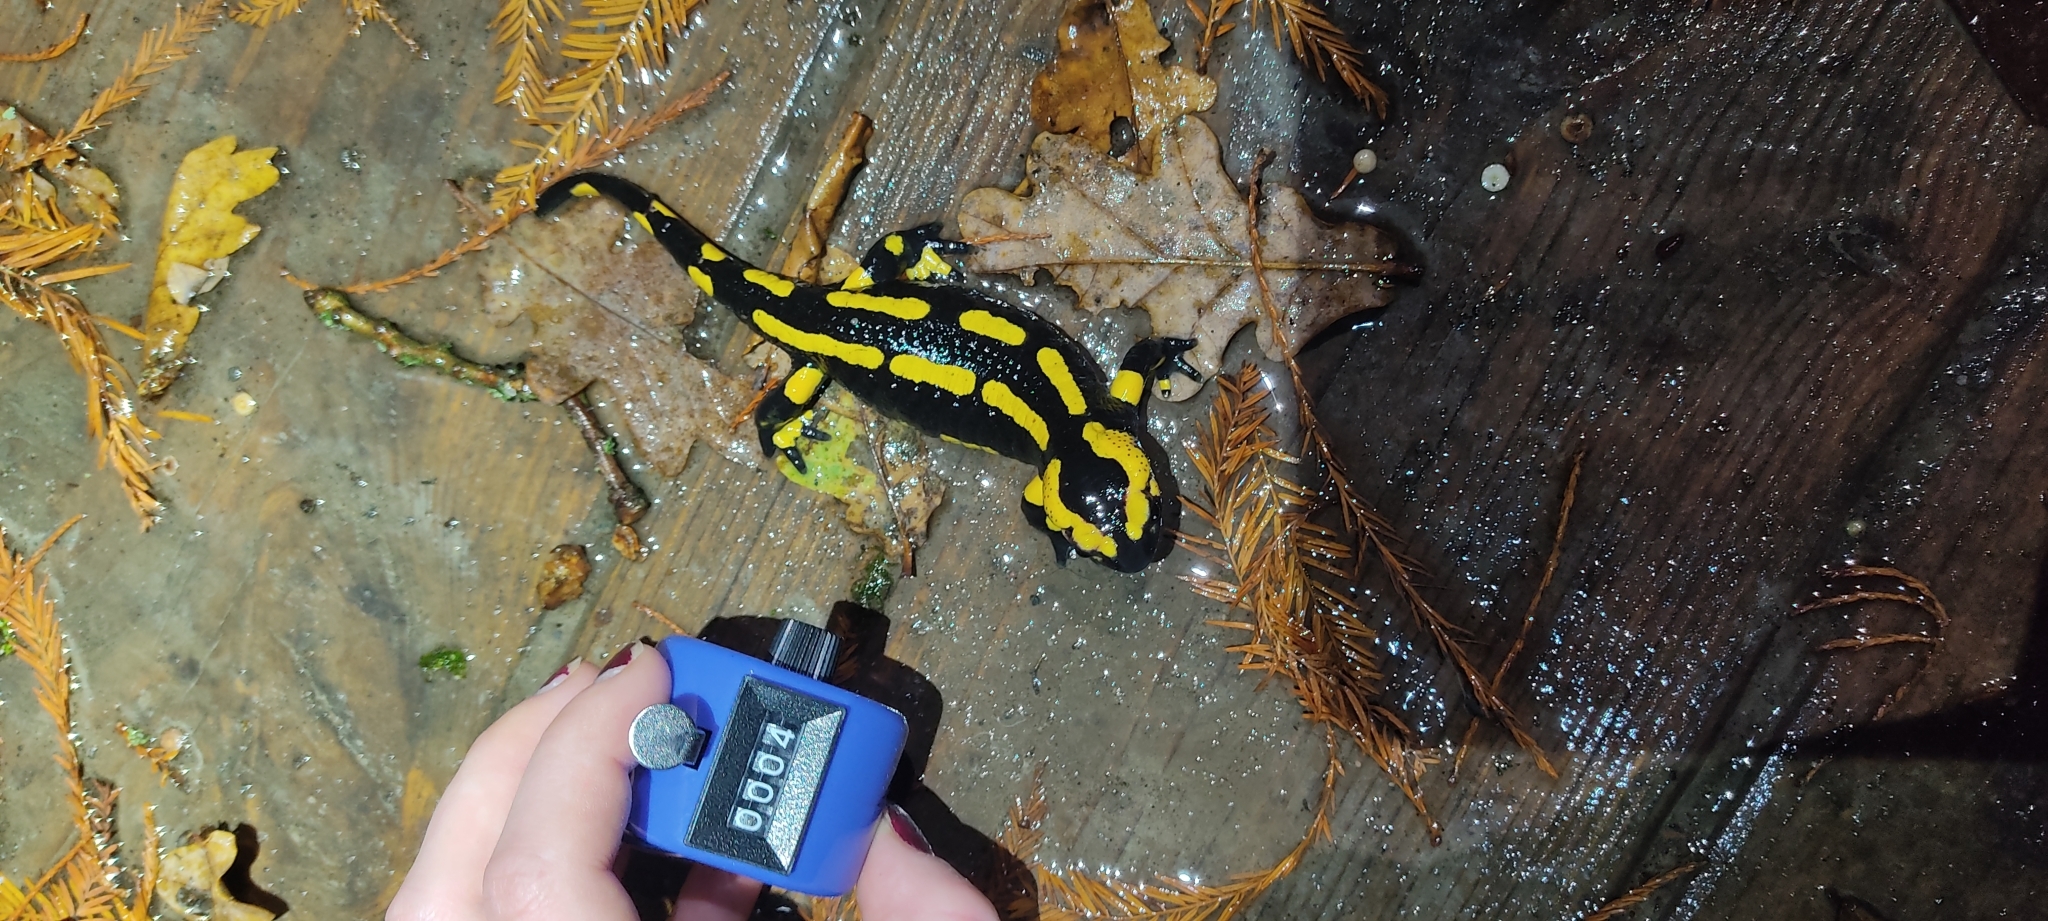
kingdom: Animalia
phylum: Chordata
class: Amphibia
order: Caudata
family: Salamandridae
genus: Salamandra
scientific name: Salamandra salamandra
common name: Fire salamander
